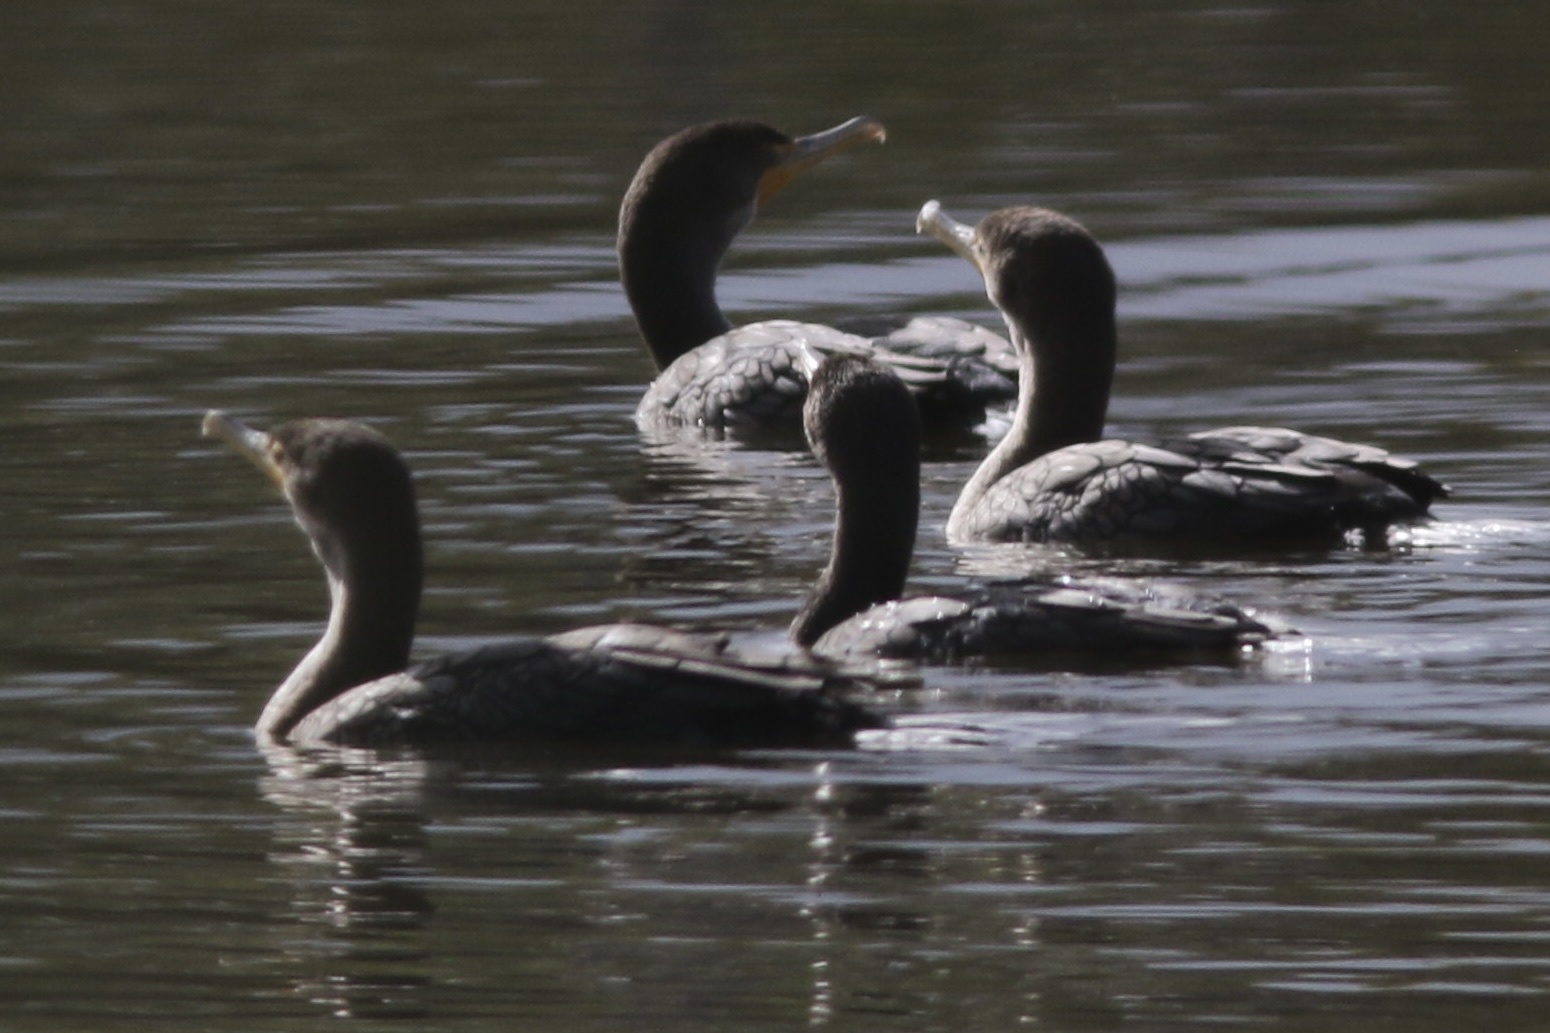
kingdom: Animalia
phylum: Chordata
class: Aves
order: Suliformes
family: Phalacrocoracidae
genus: Phalacrocorax
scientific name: Phalacrocorax auritus
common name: Double-crested cormorant
